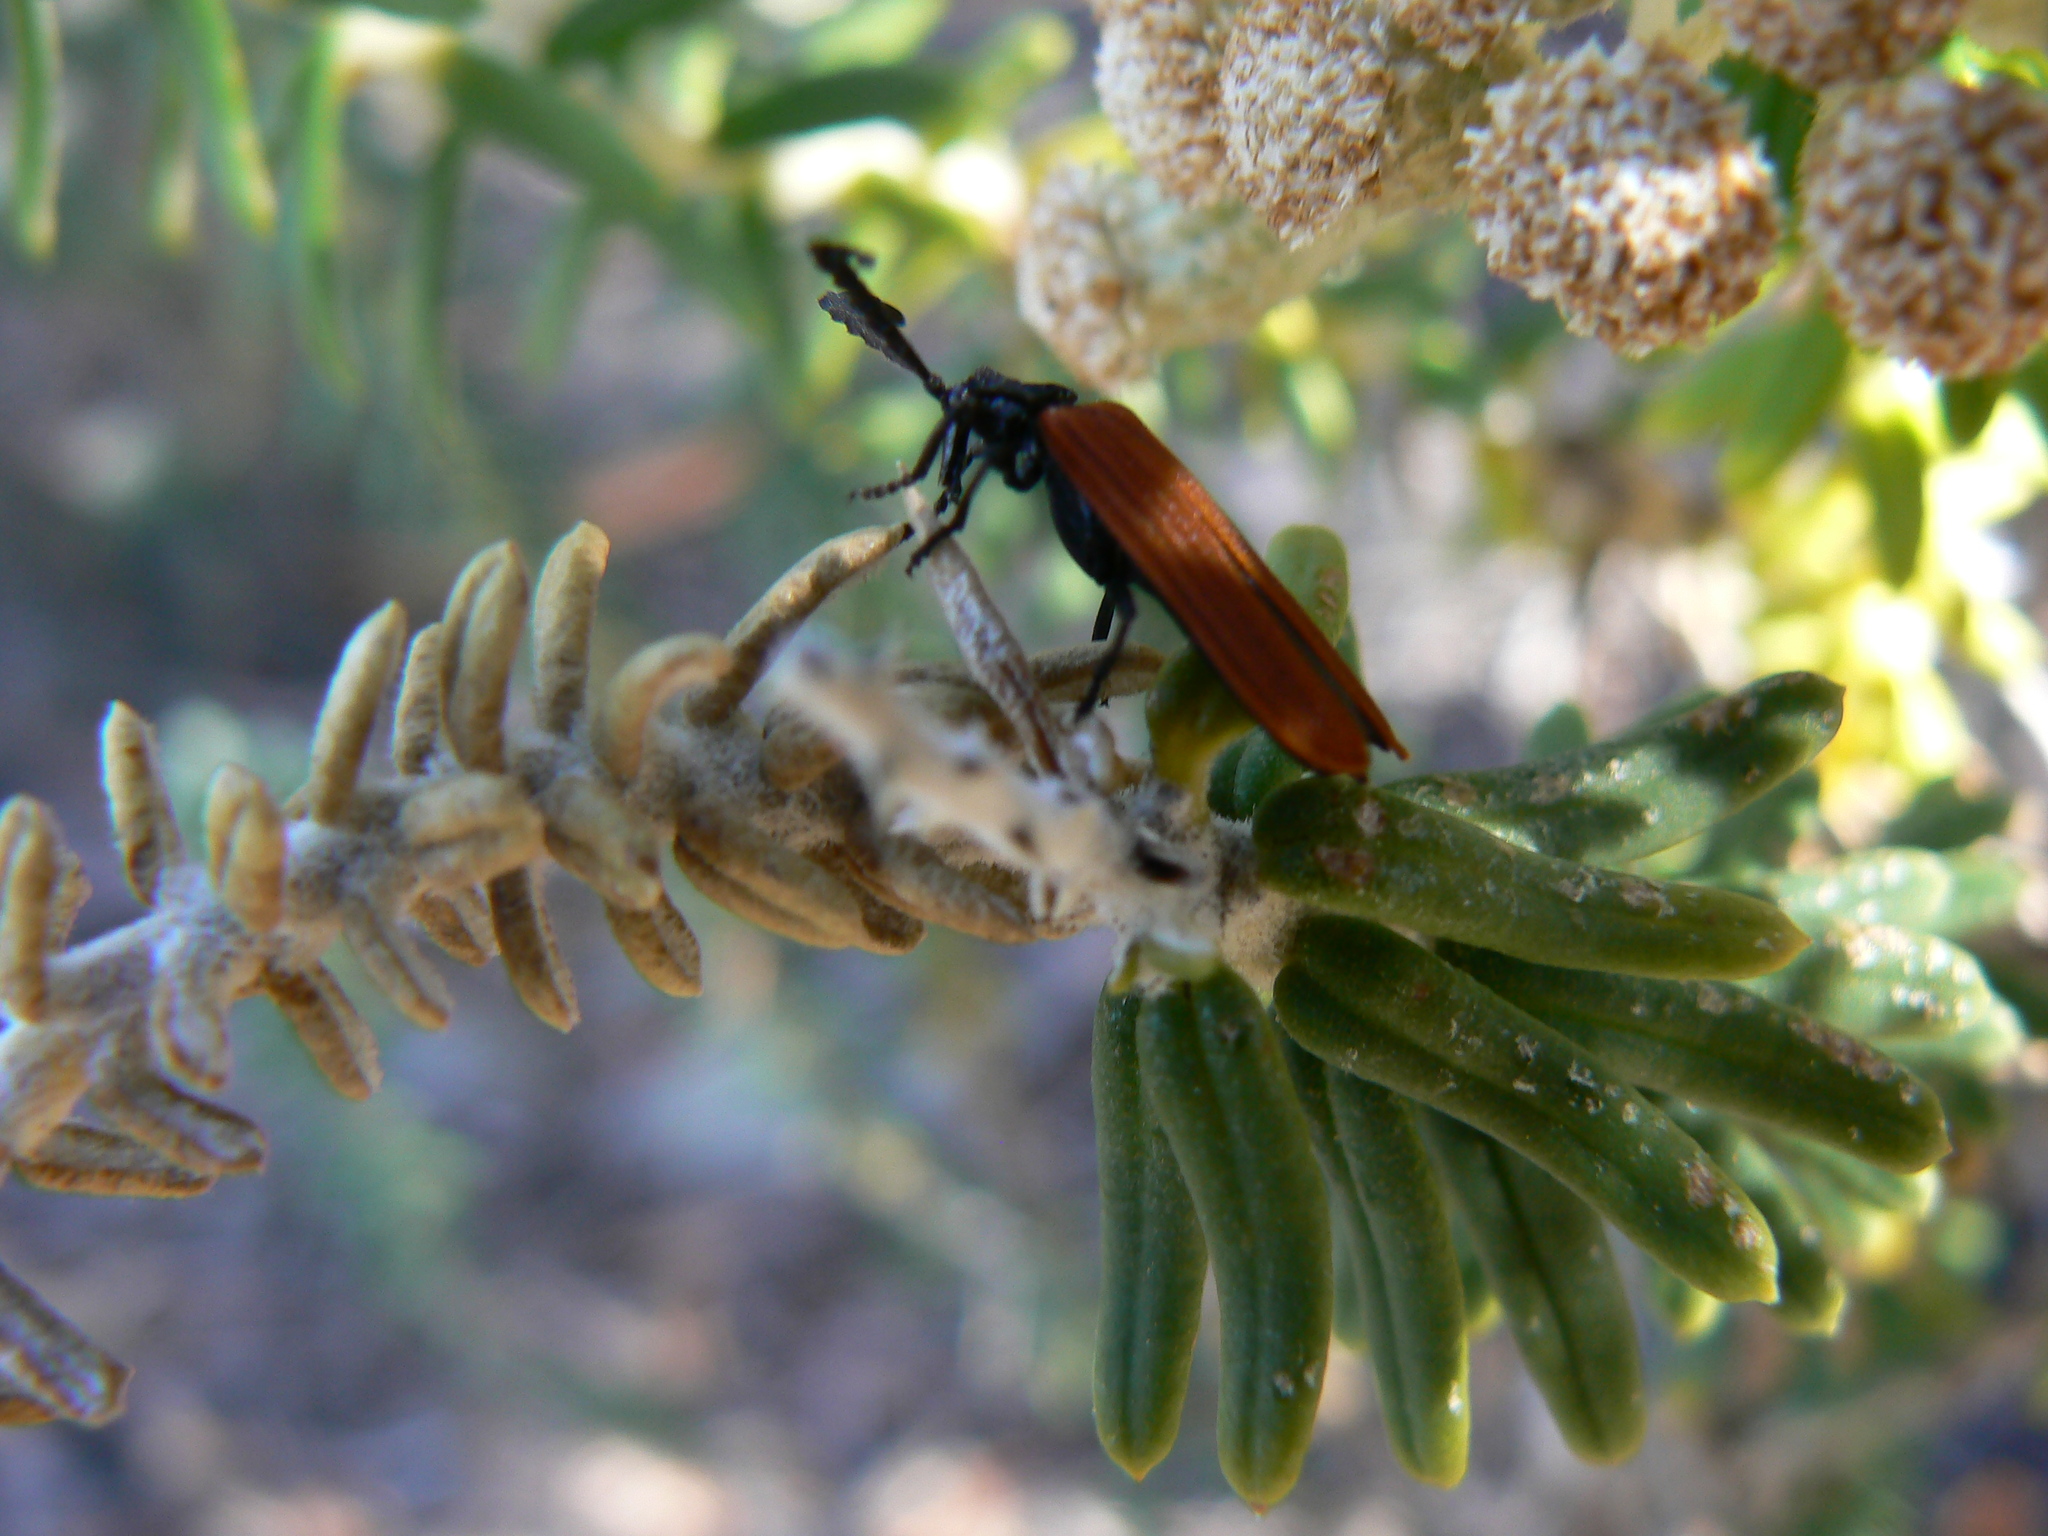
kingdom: Animalia
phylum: Arthropoda
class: Insecta
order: Coleoptera
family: Lycidae
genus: Porrostoma
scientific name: Porrostoma rhipidium
